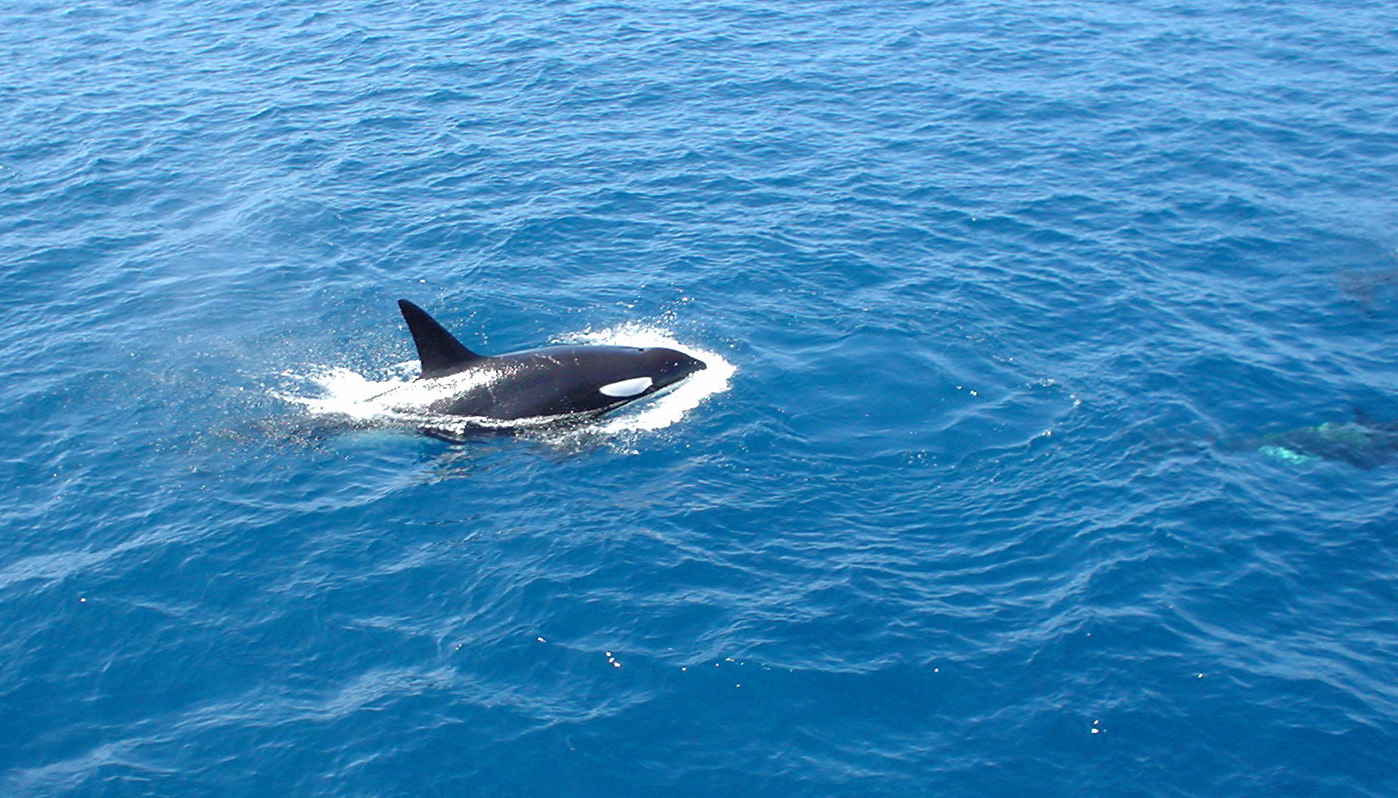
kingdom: Animalia
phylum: Chordata
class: Mammalia
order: Cetacea
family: Delphinidae
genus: Orcinus
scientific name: Orcinus orca
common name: Killer whale
